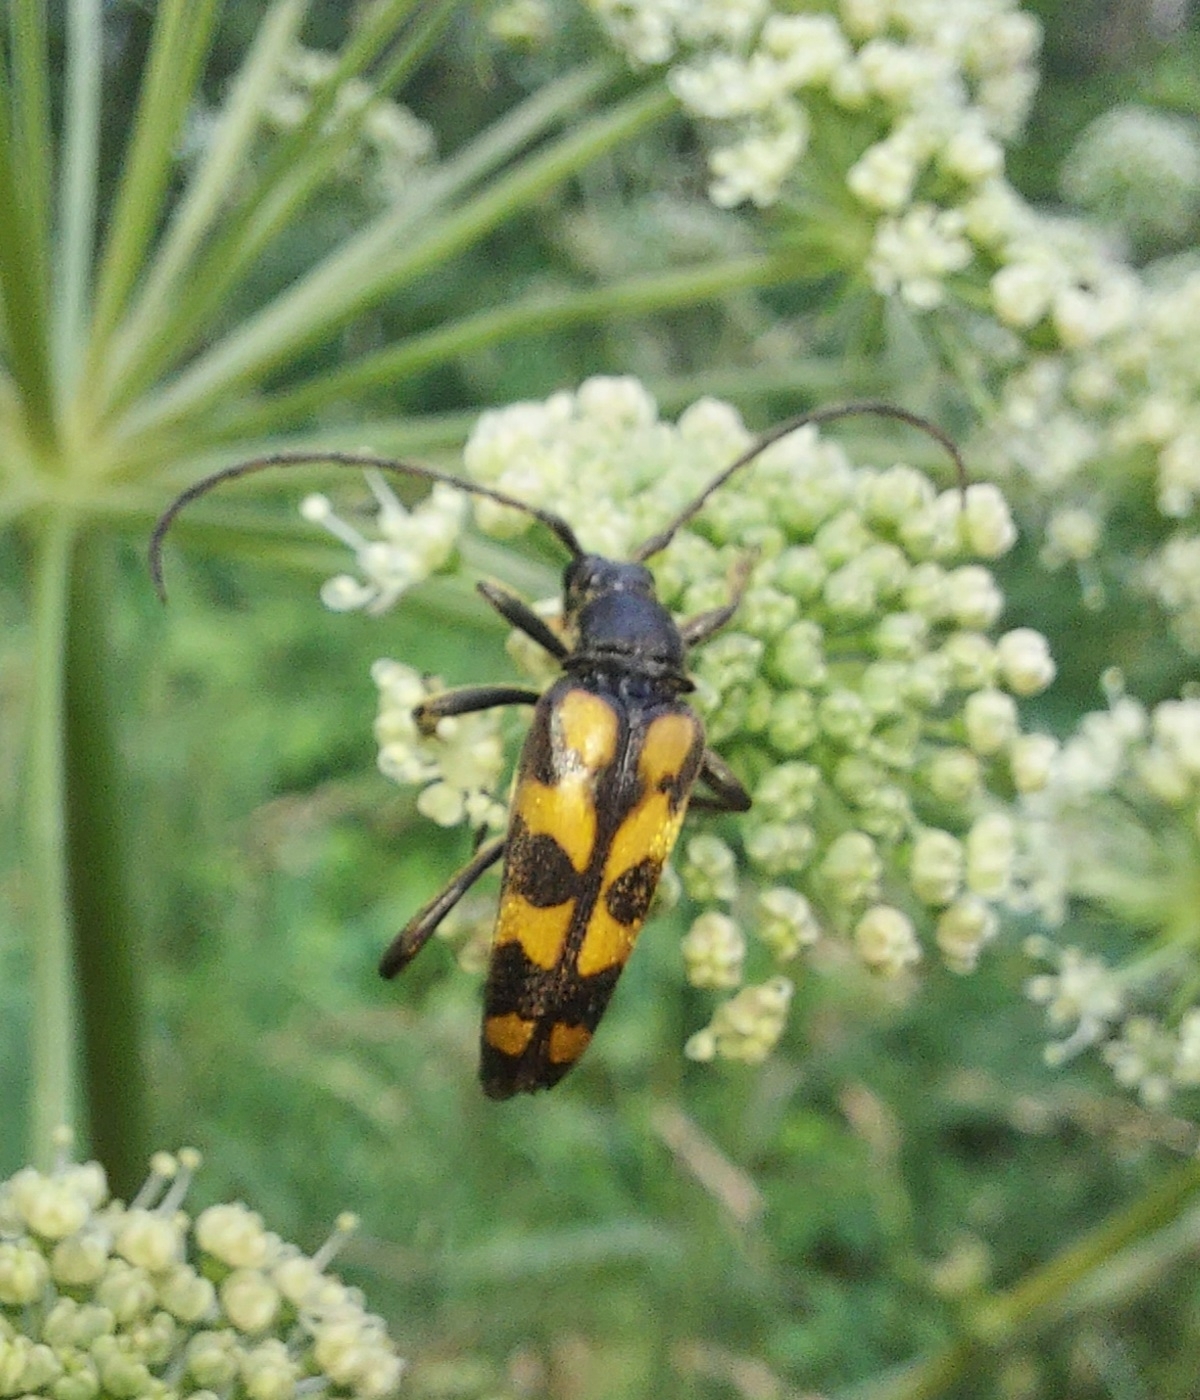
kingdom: Animalia
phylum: Arthropoda
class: Insecta
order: Coleoptera
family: Cerambycidae
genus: Leptura
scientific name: Leptura quadrifasciata
